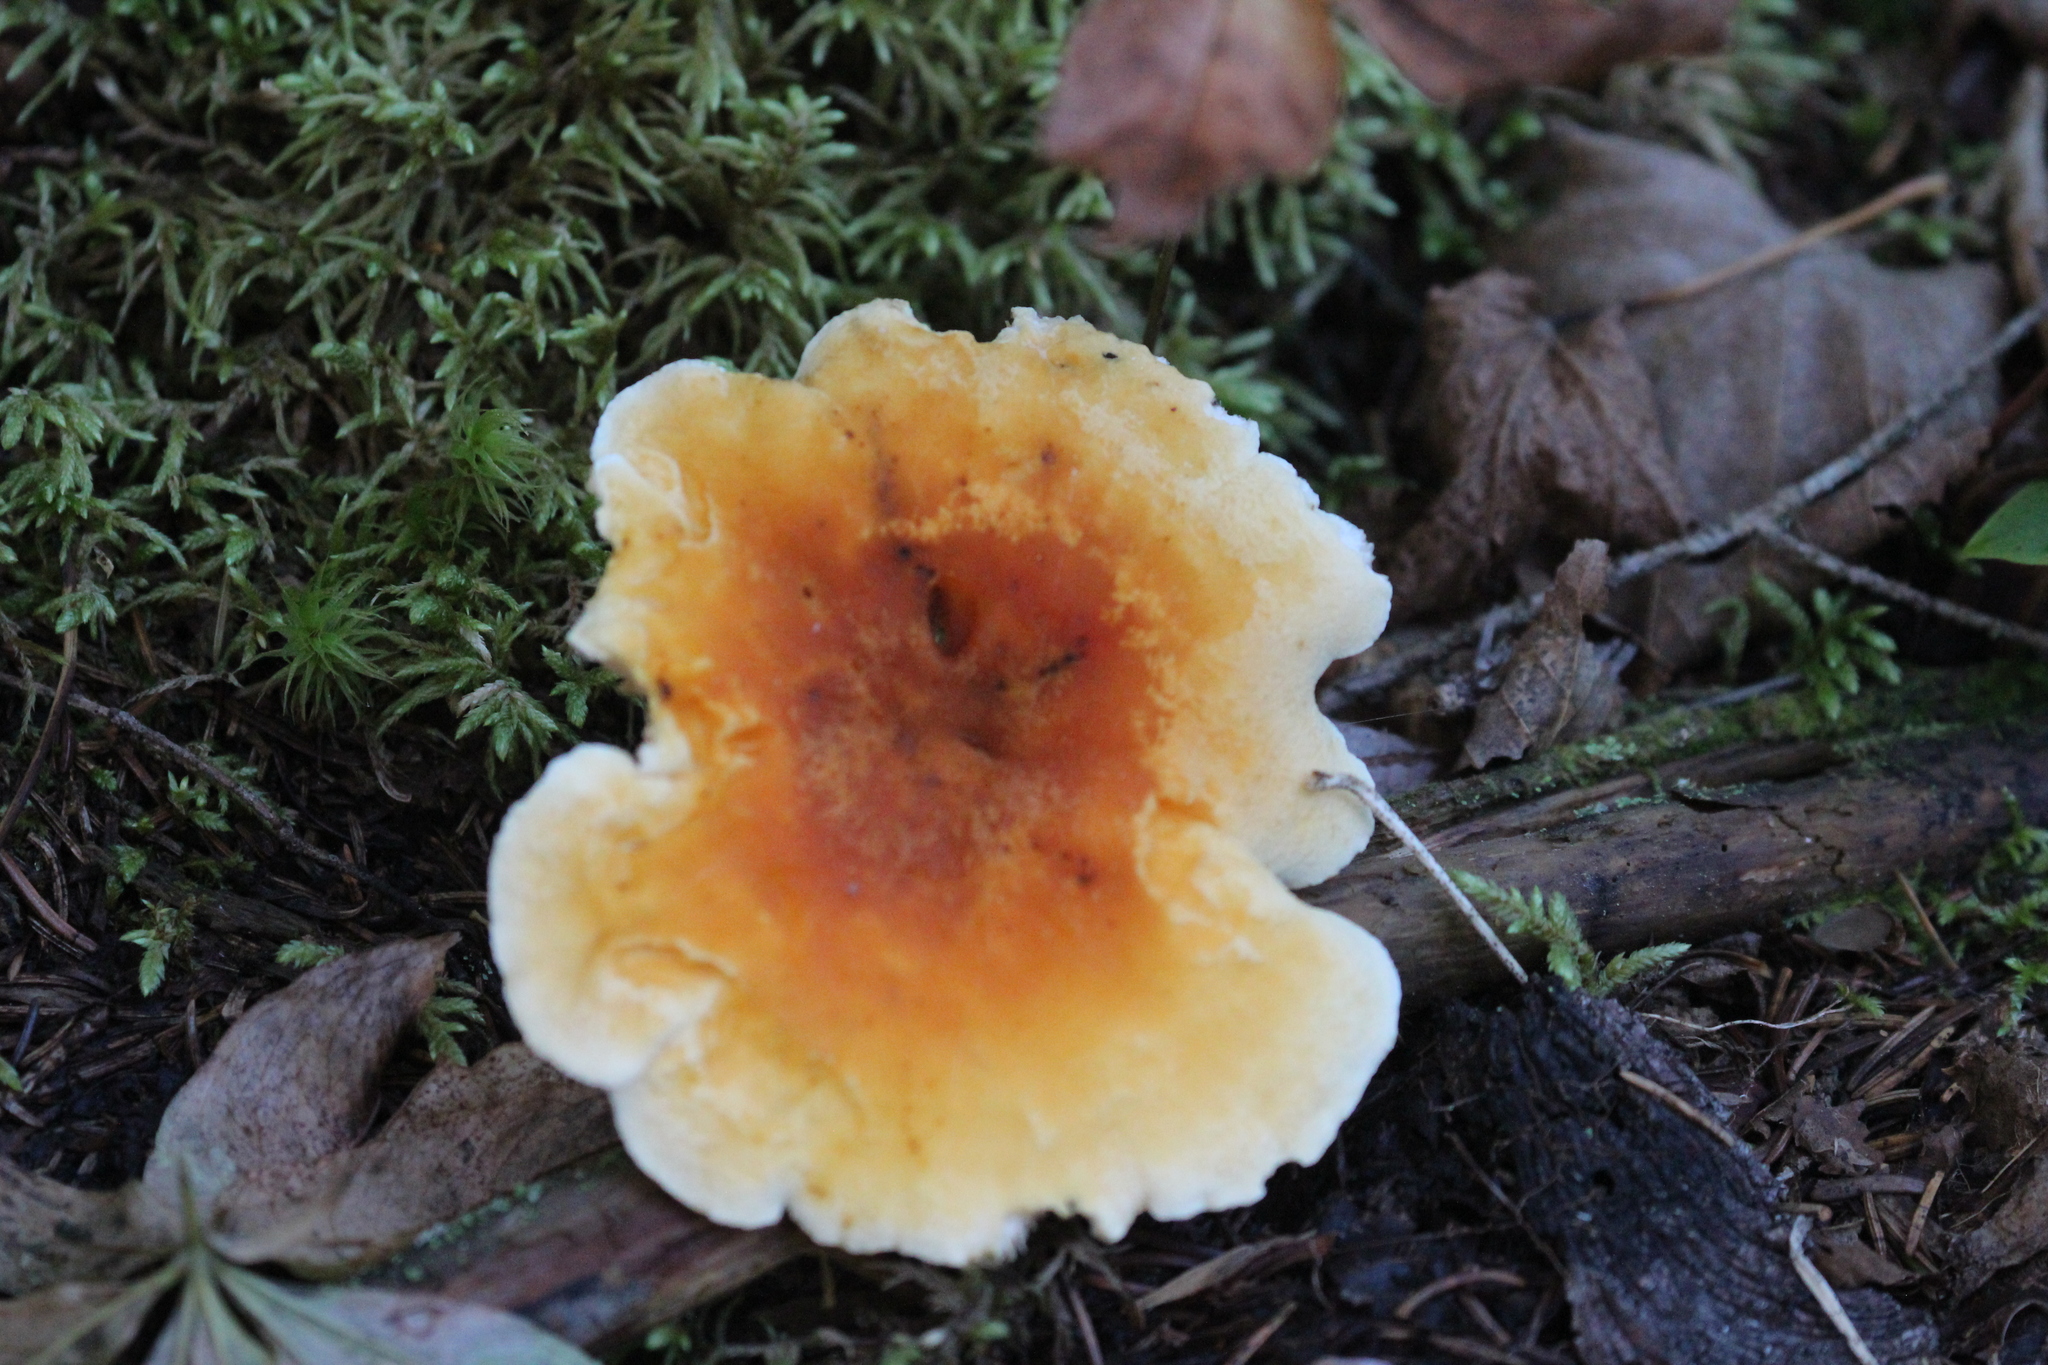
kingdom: Fungi
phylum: Basidiomycota
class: Agaricomycetes
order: Boletales
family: Hygrophoropsidaceae
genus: Hygrophoropsis
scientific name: Hygrophoropsis aurantiaca
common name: False chanterelle
